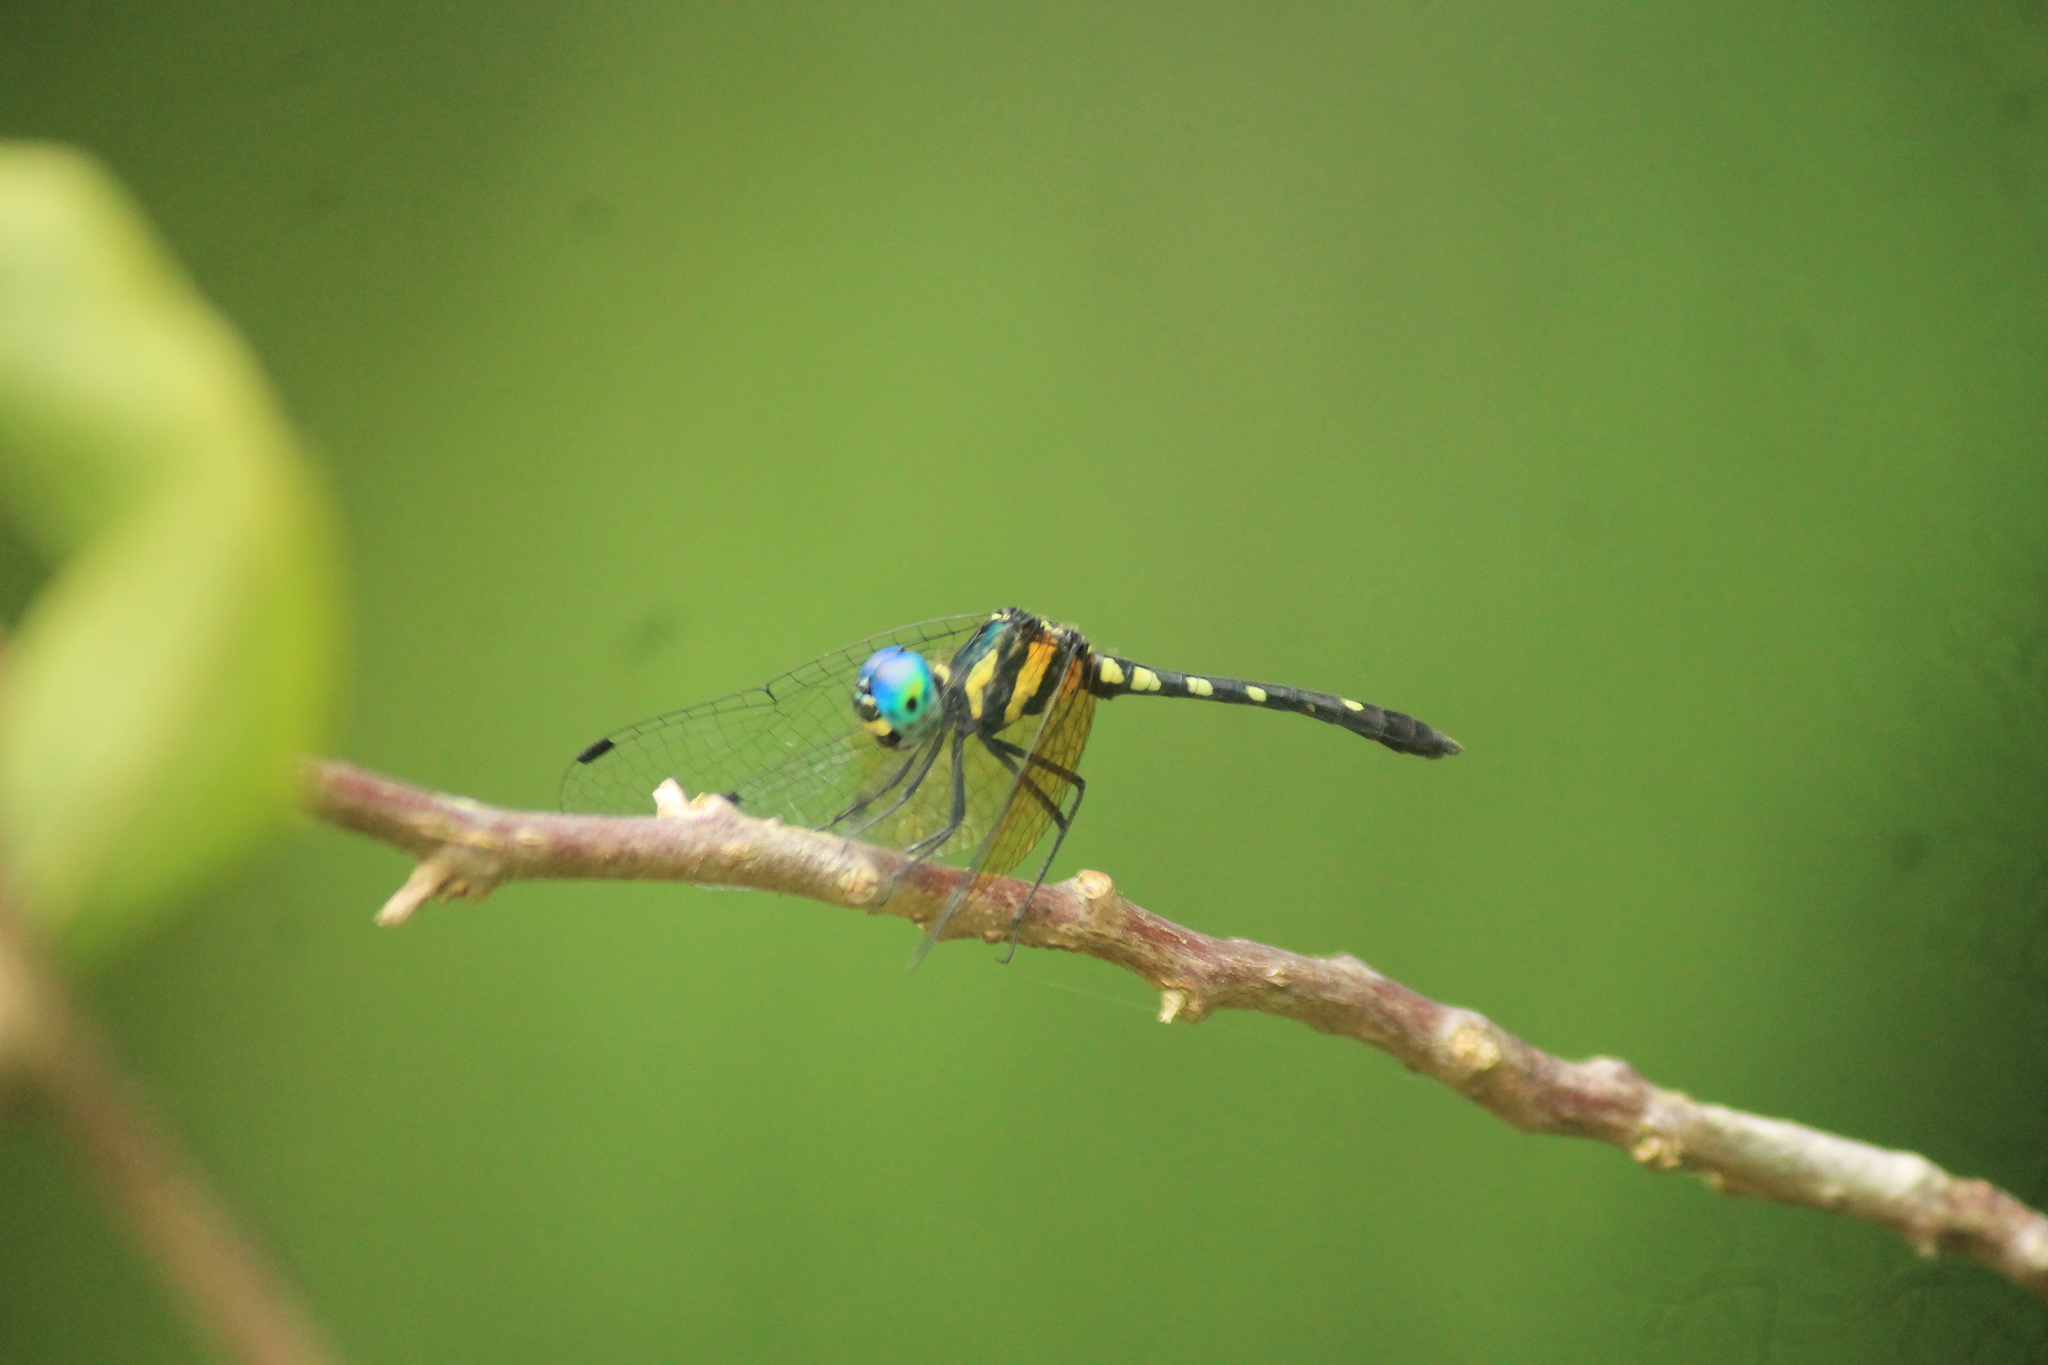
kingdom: Animalia
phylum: Arthropoda
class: Insecta
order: Odonata
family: Libellulidae
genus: Tetrathemis
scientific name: Tetrathemis platyptera
